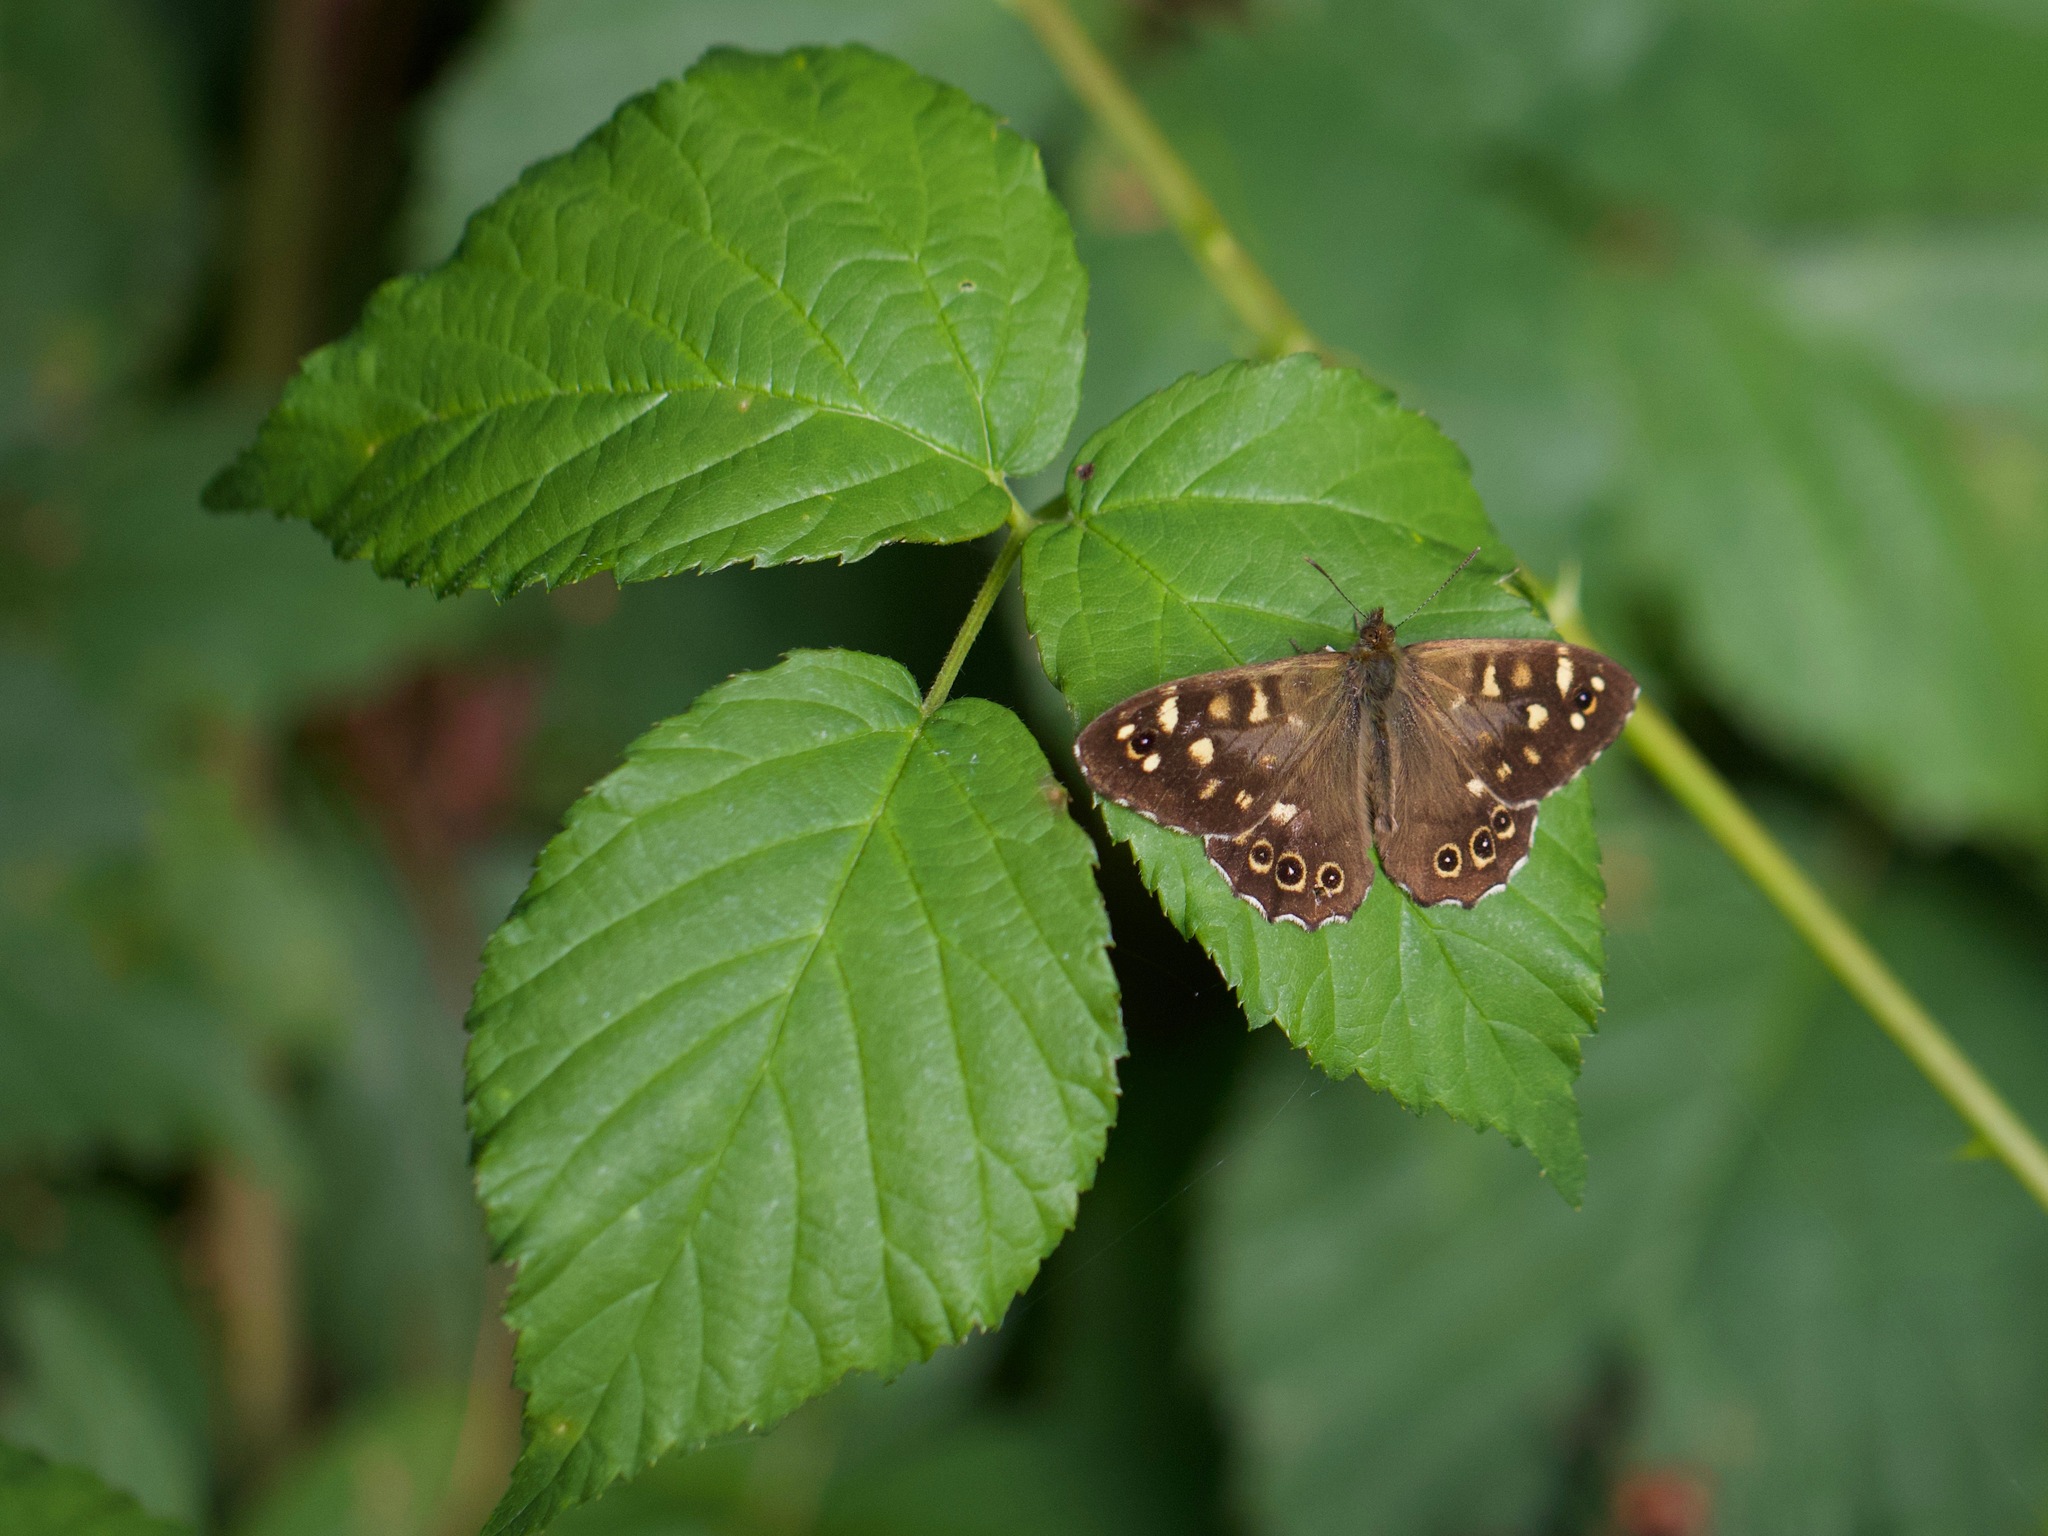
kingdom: Animalia
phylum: Arthropoda
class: Insecta
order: Lepidoptera
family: Nymphalidae
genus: Pararge
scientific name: Pararge aegeria
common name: Speckled wood
